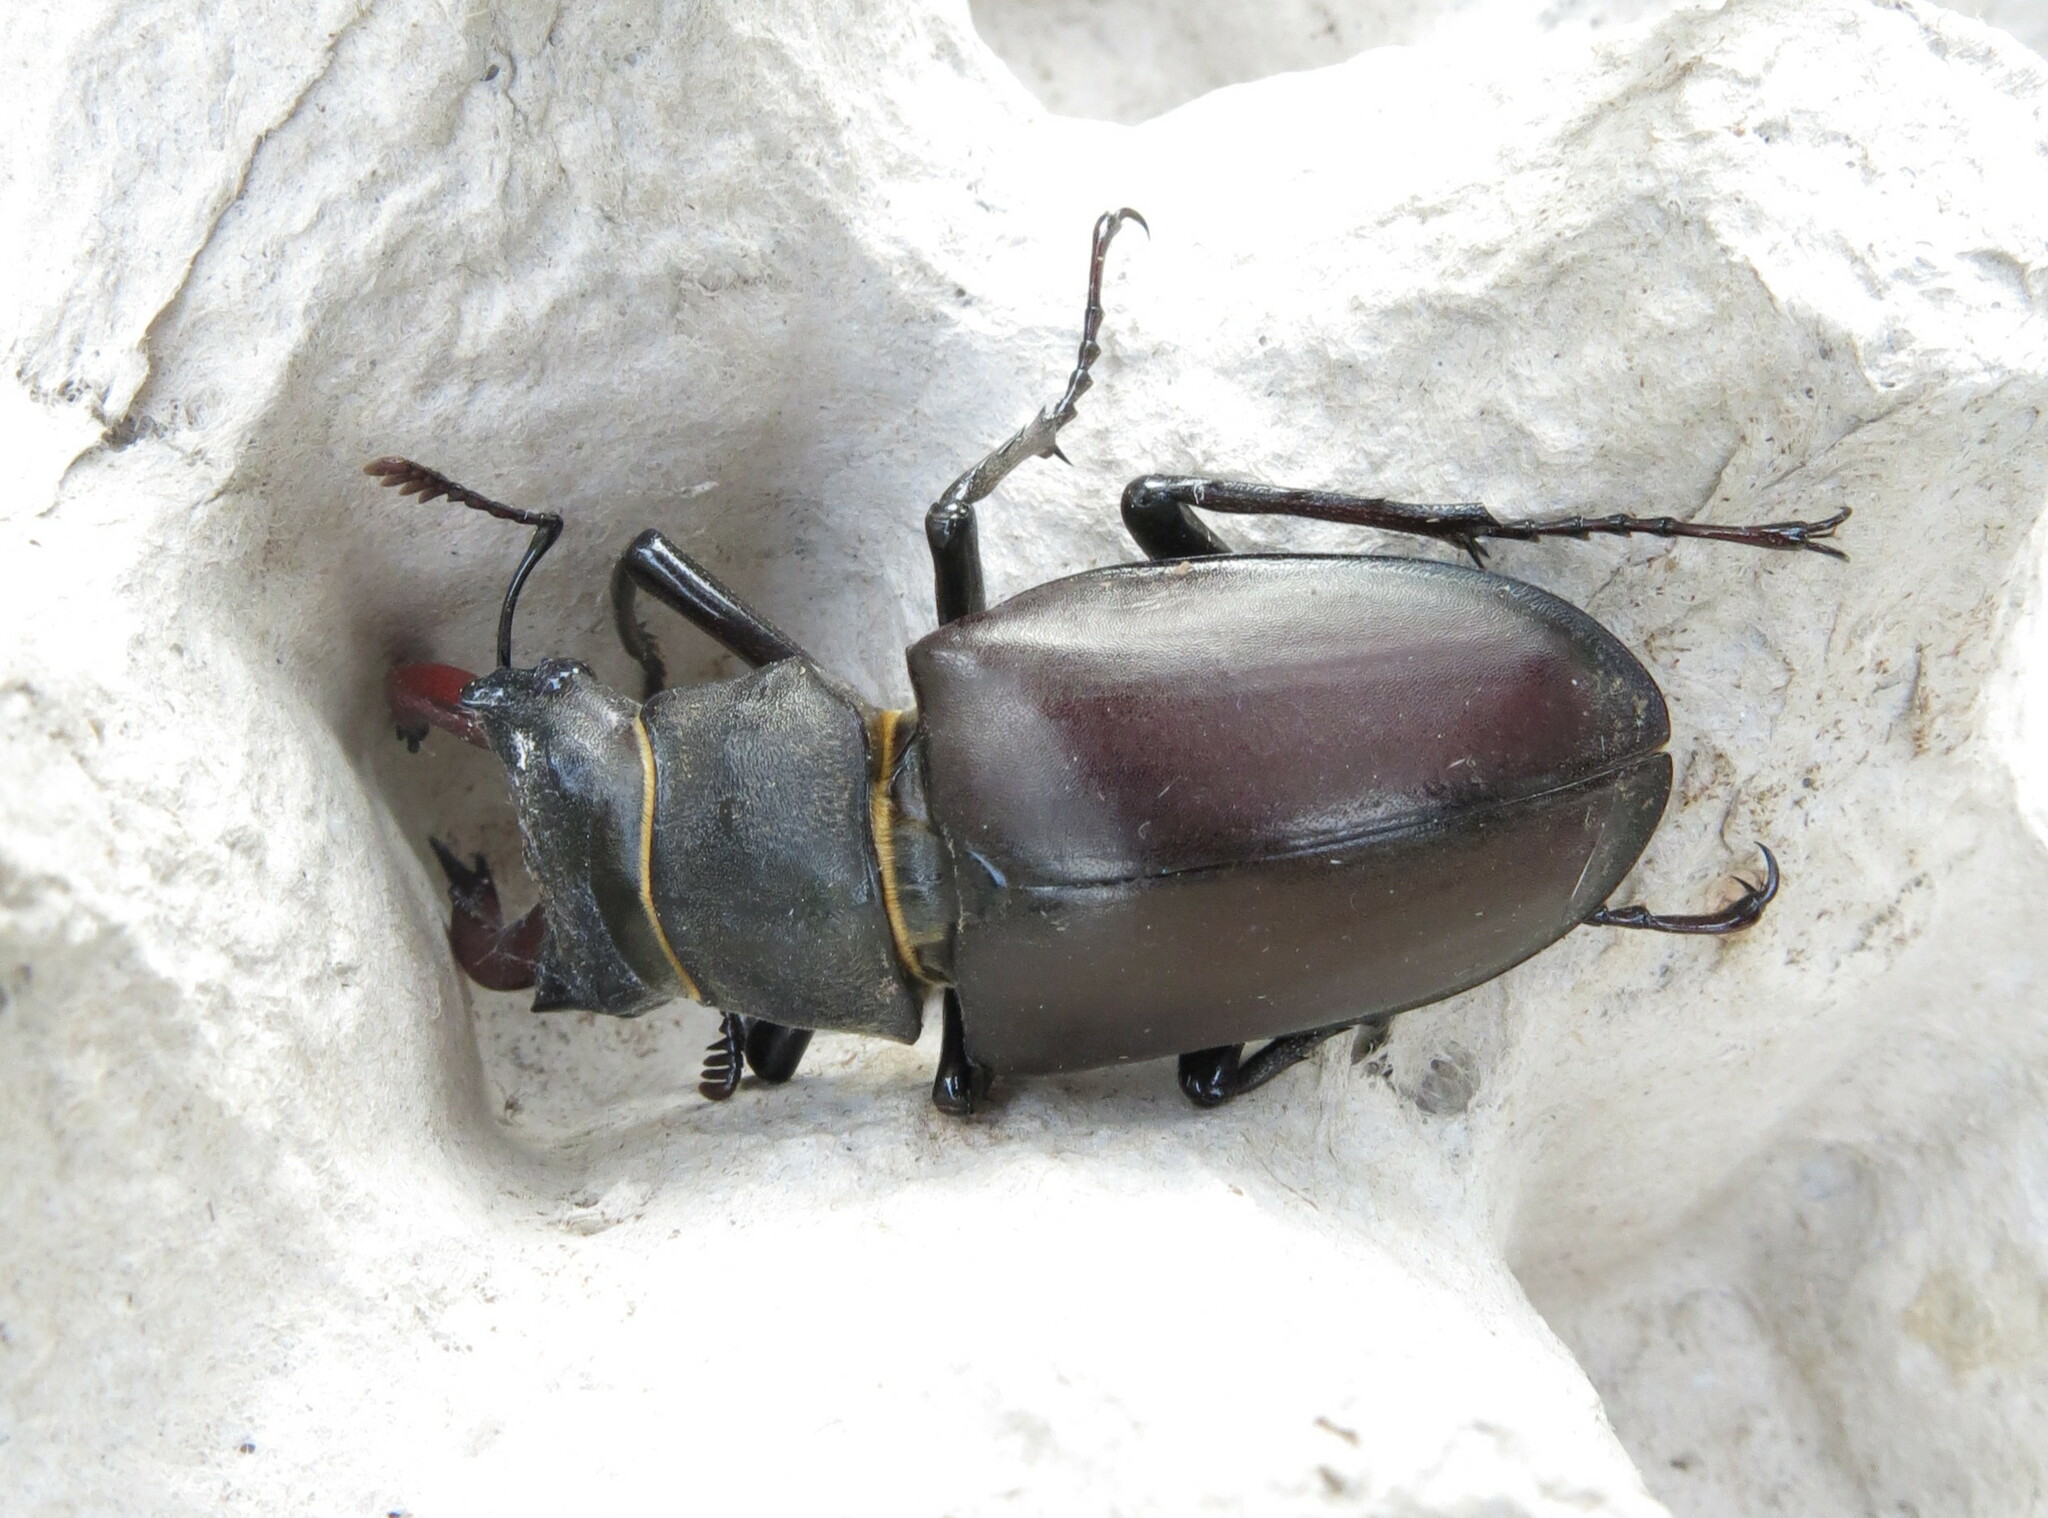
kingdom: Animalia
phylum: Arthropoda
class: Insecta
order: Coleoptera
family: Lucanidae
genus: Lucanus
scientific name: Lucanus cervus
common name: Stag beetle
